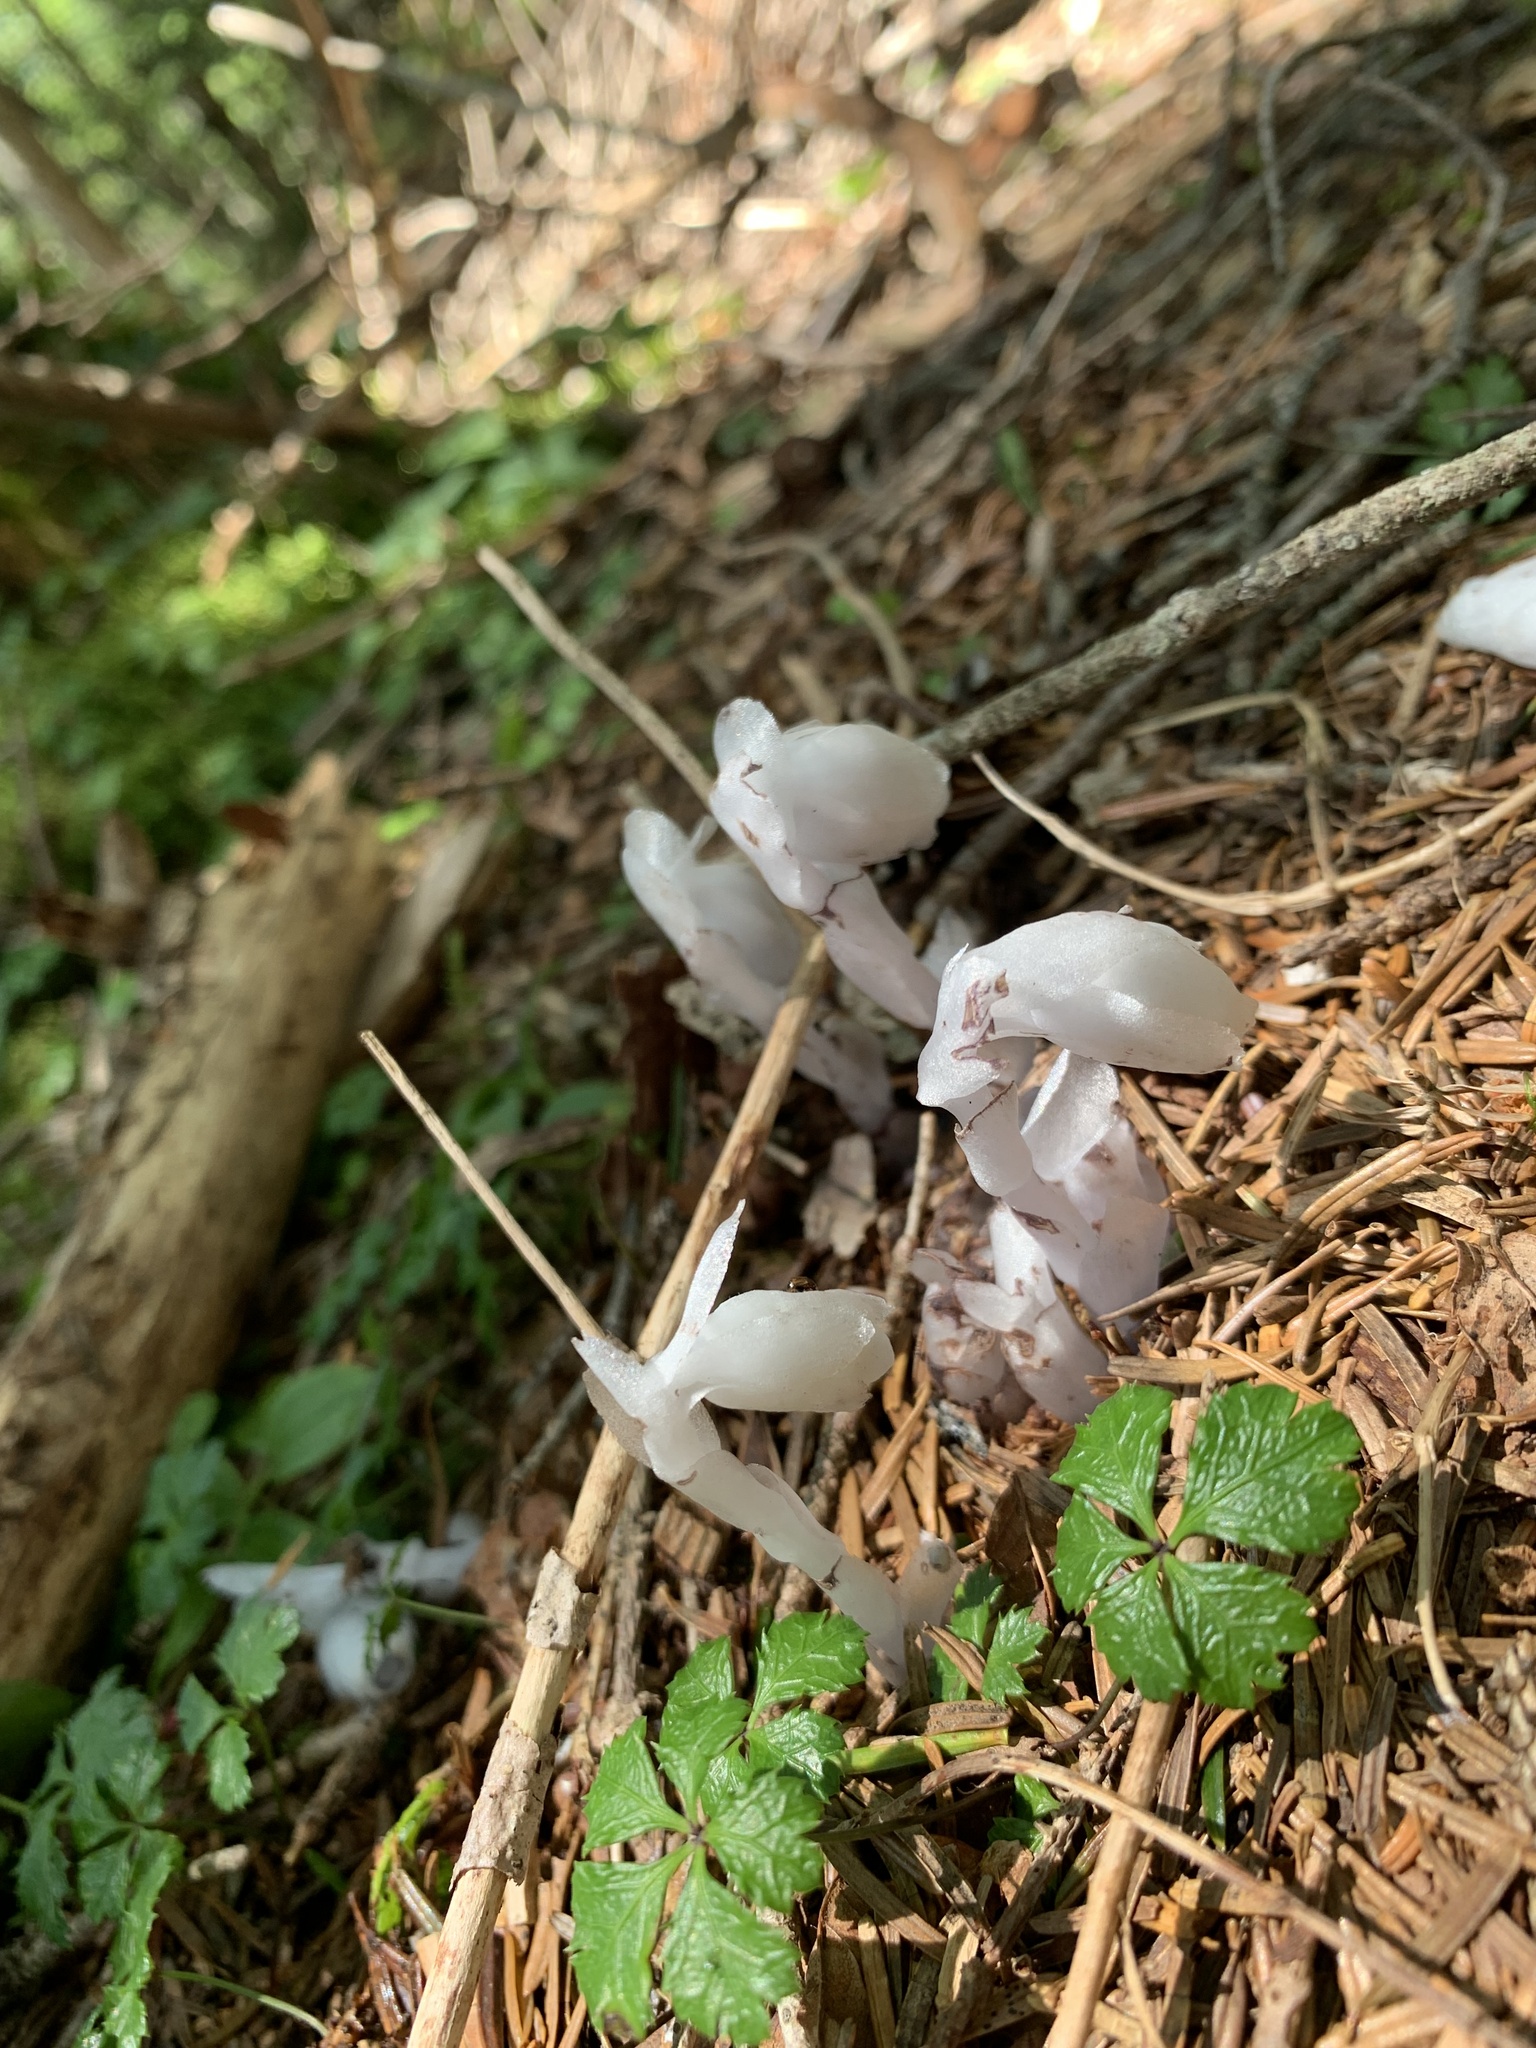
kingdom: Plantae
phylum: Tracheophyta
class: Magnoliopsida
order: Ericales
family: Ericaceae
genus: Monotropastrum
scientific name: Monotropastrum humile
